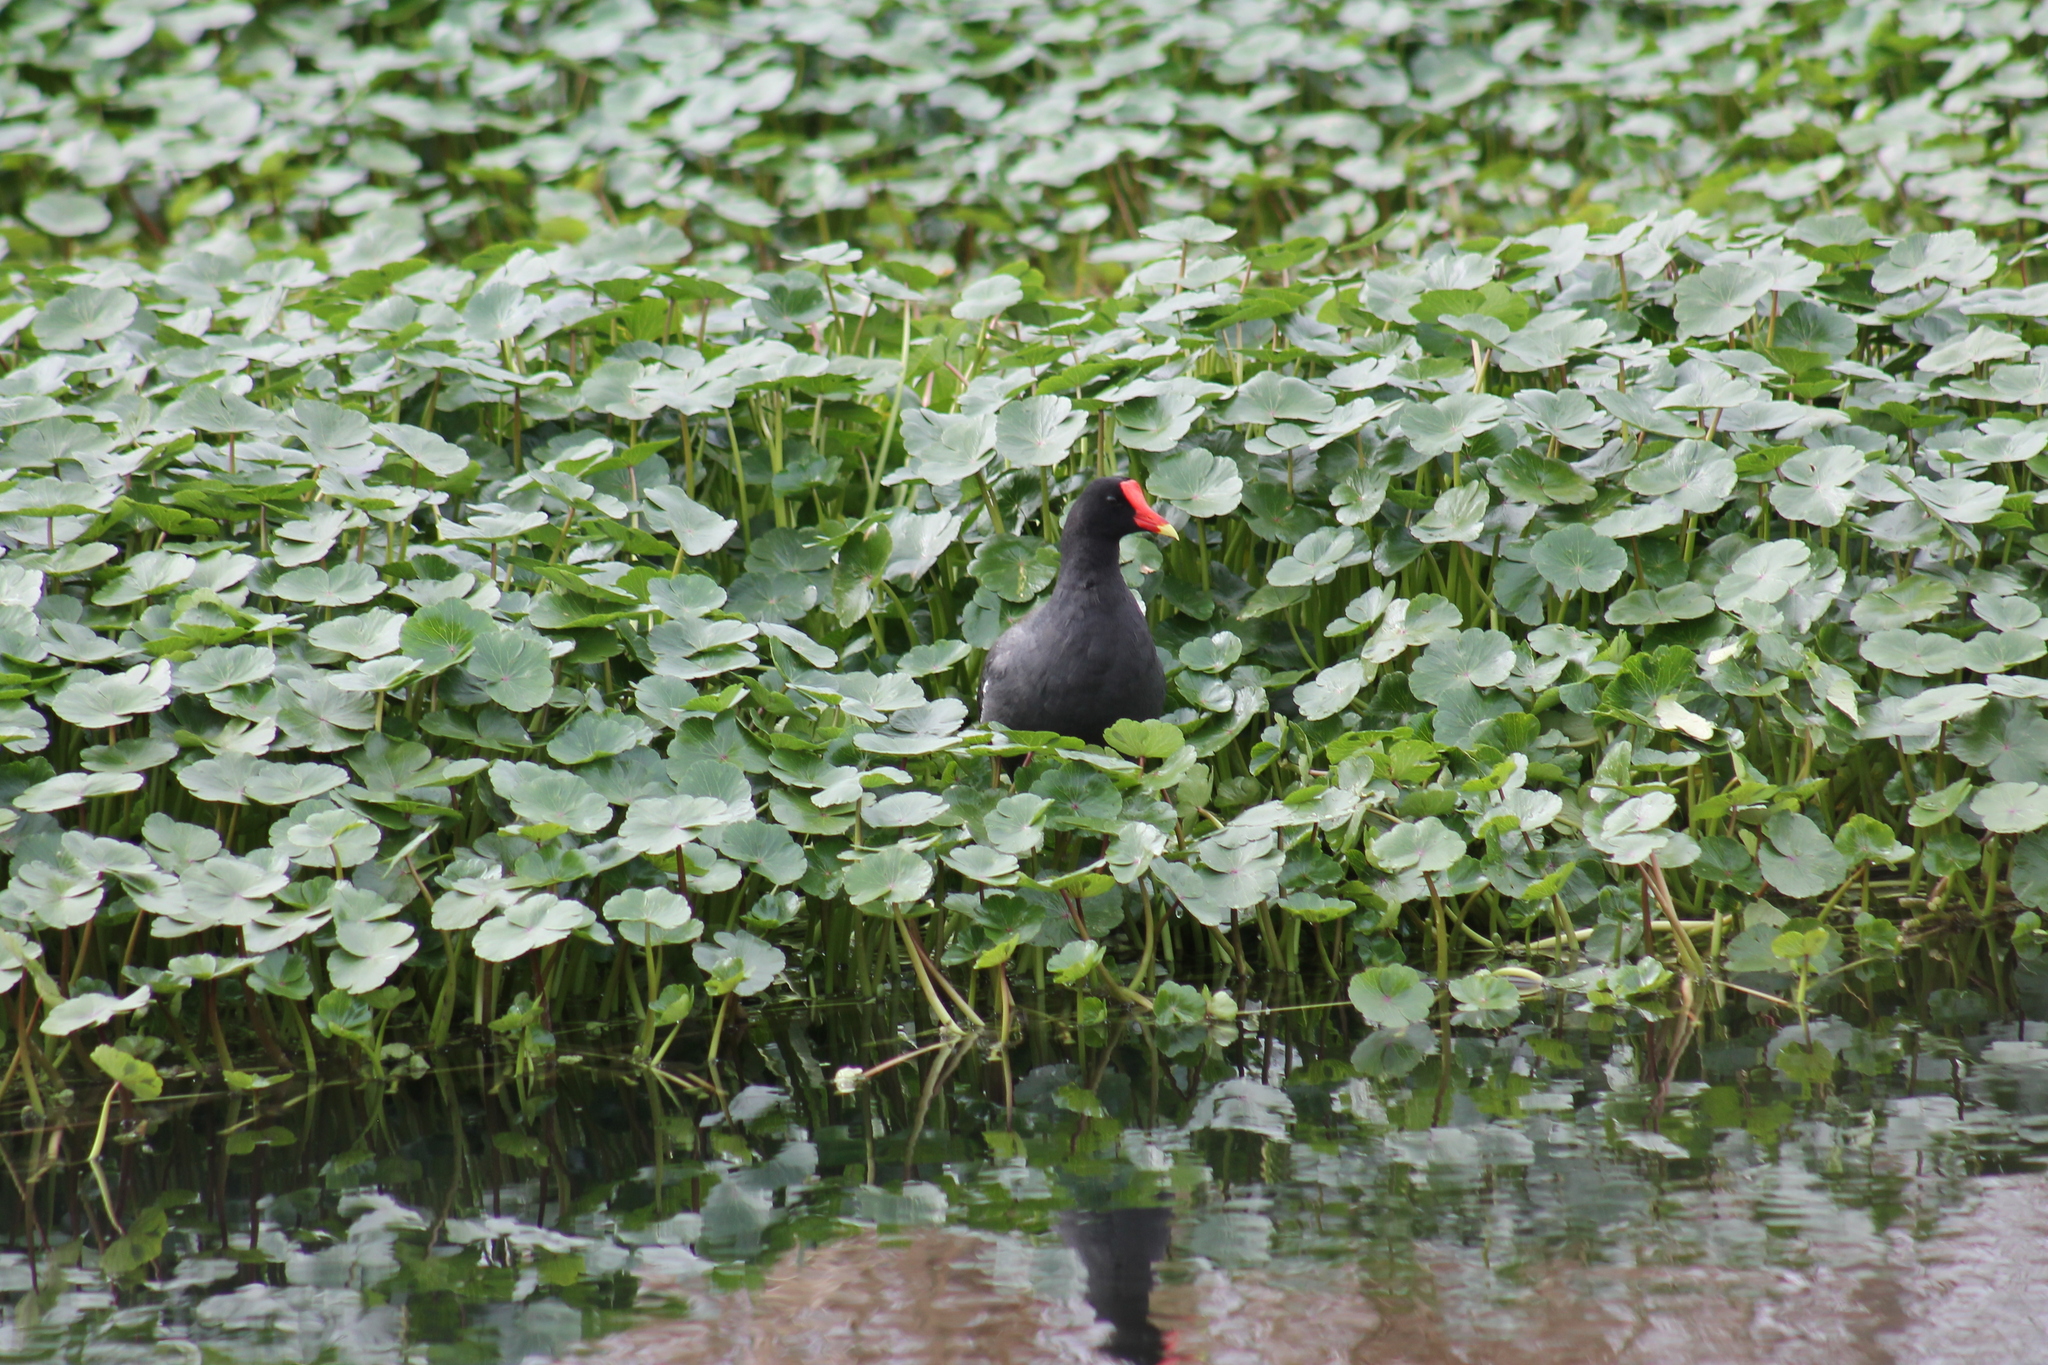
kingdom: Animalia
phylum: Chordata
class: Aves
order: Gruiformes
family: Rallidae
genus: Gallinula
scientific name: Gallinula chloropus
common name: Common moorhen
